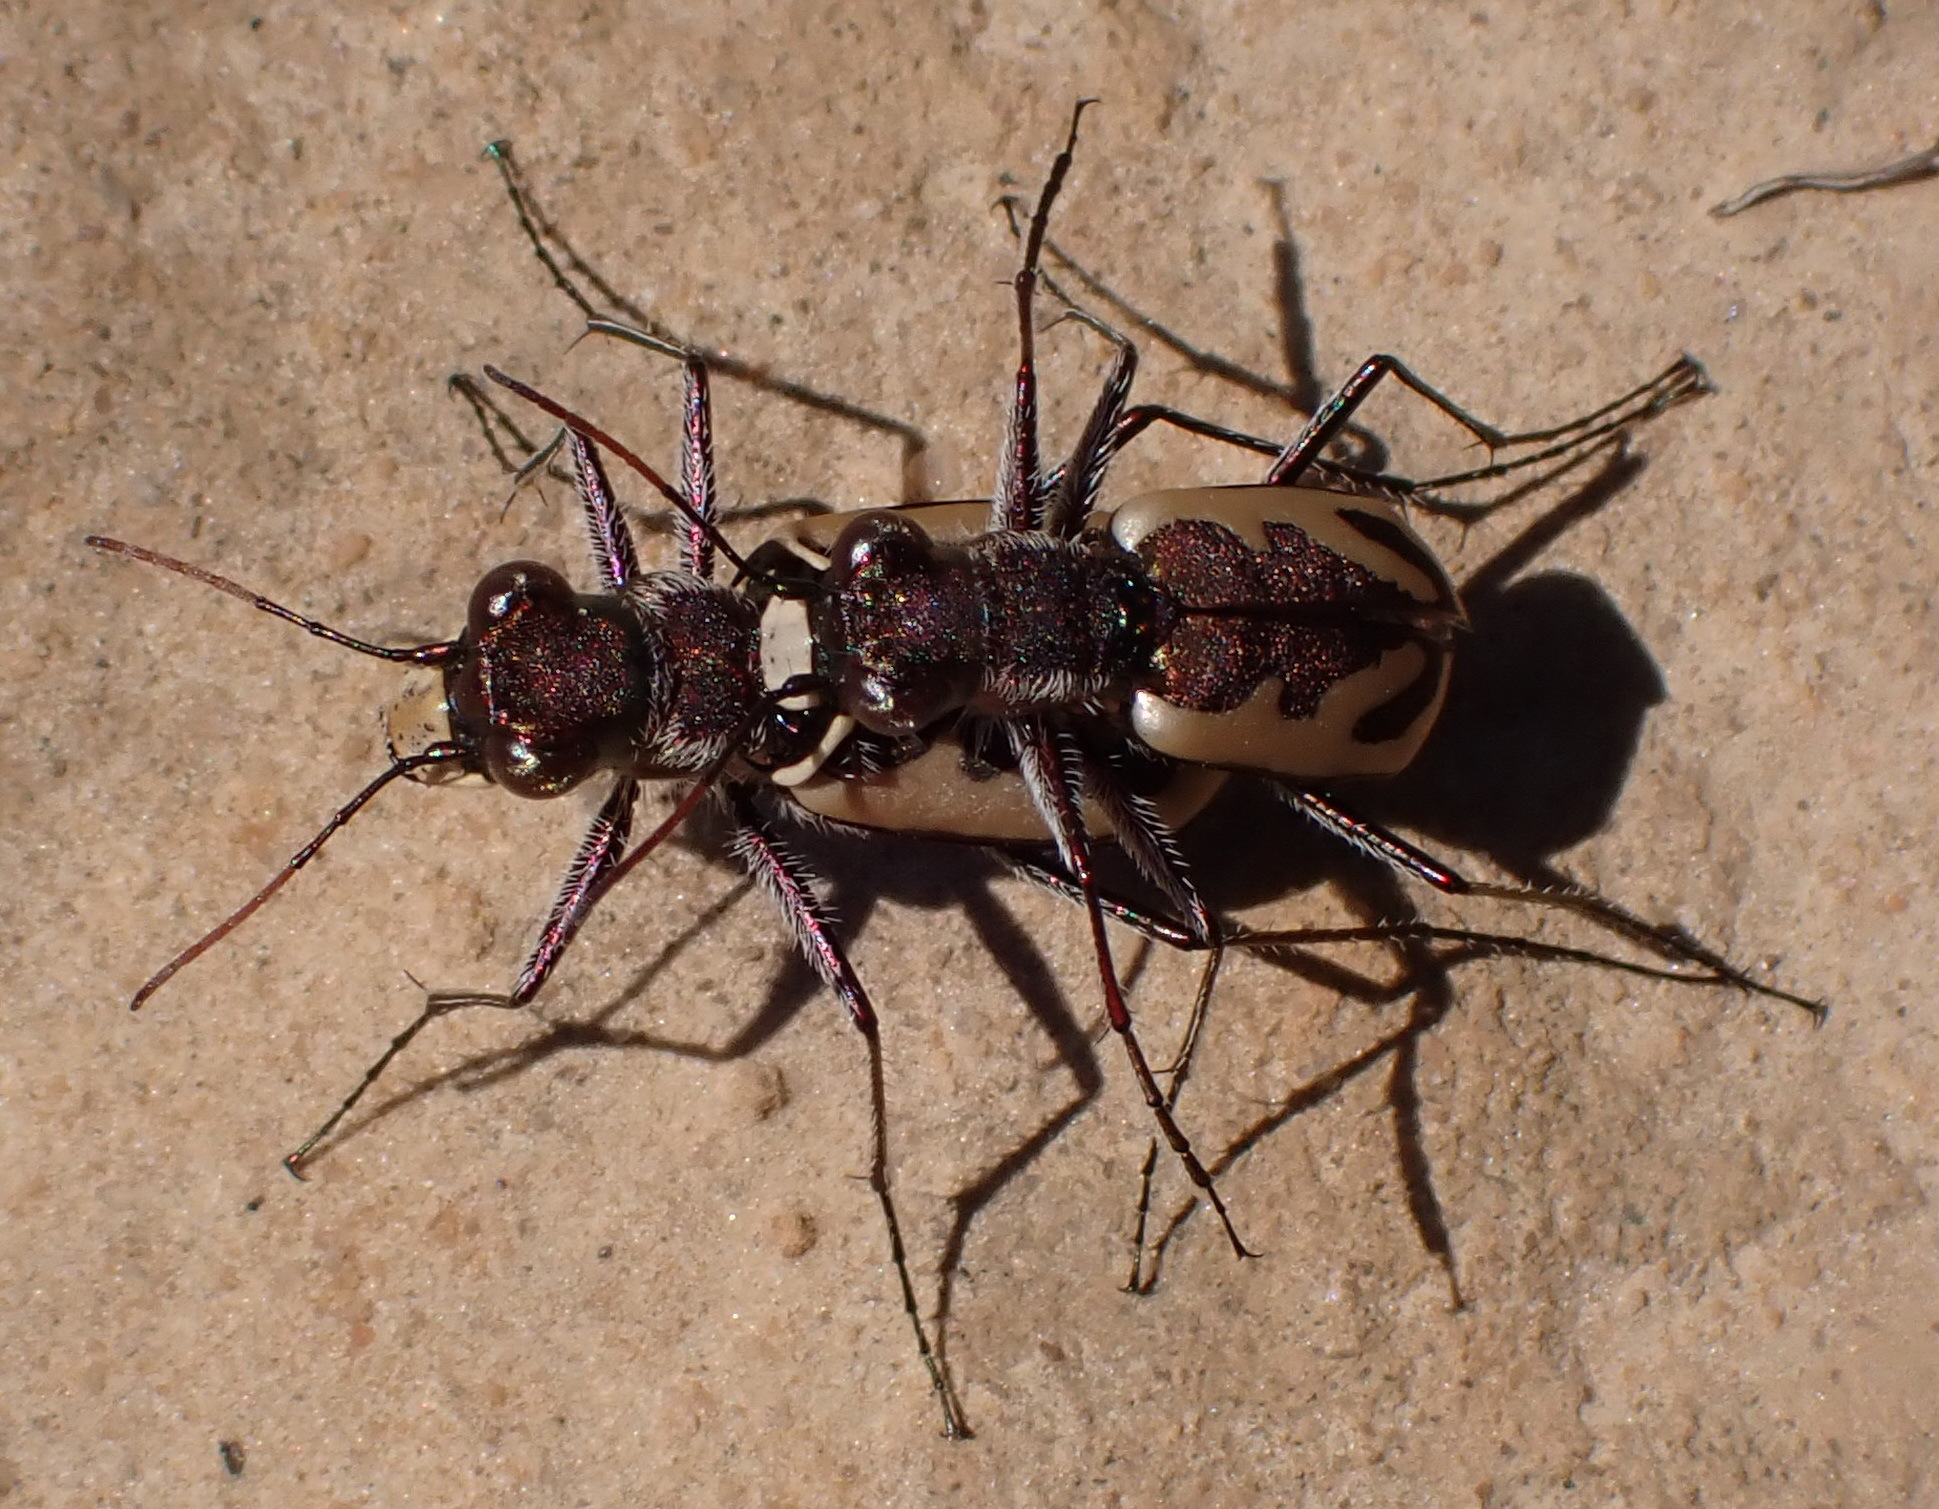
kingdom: Animalia
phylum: Arthropoda
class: Insecta
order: Coleoptera
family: Carabidae
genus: Cicindela
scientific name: Cicindela marginella
